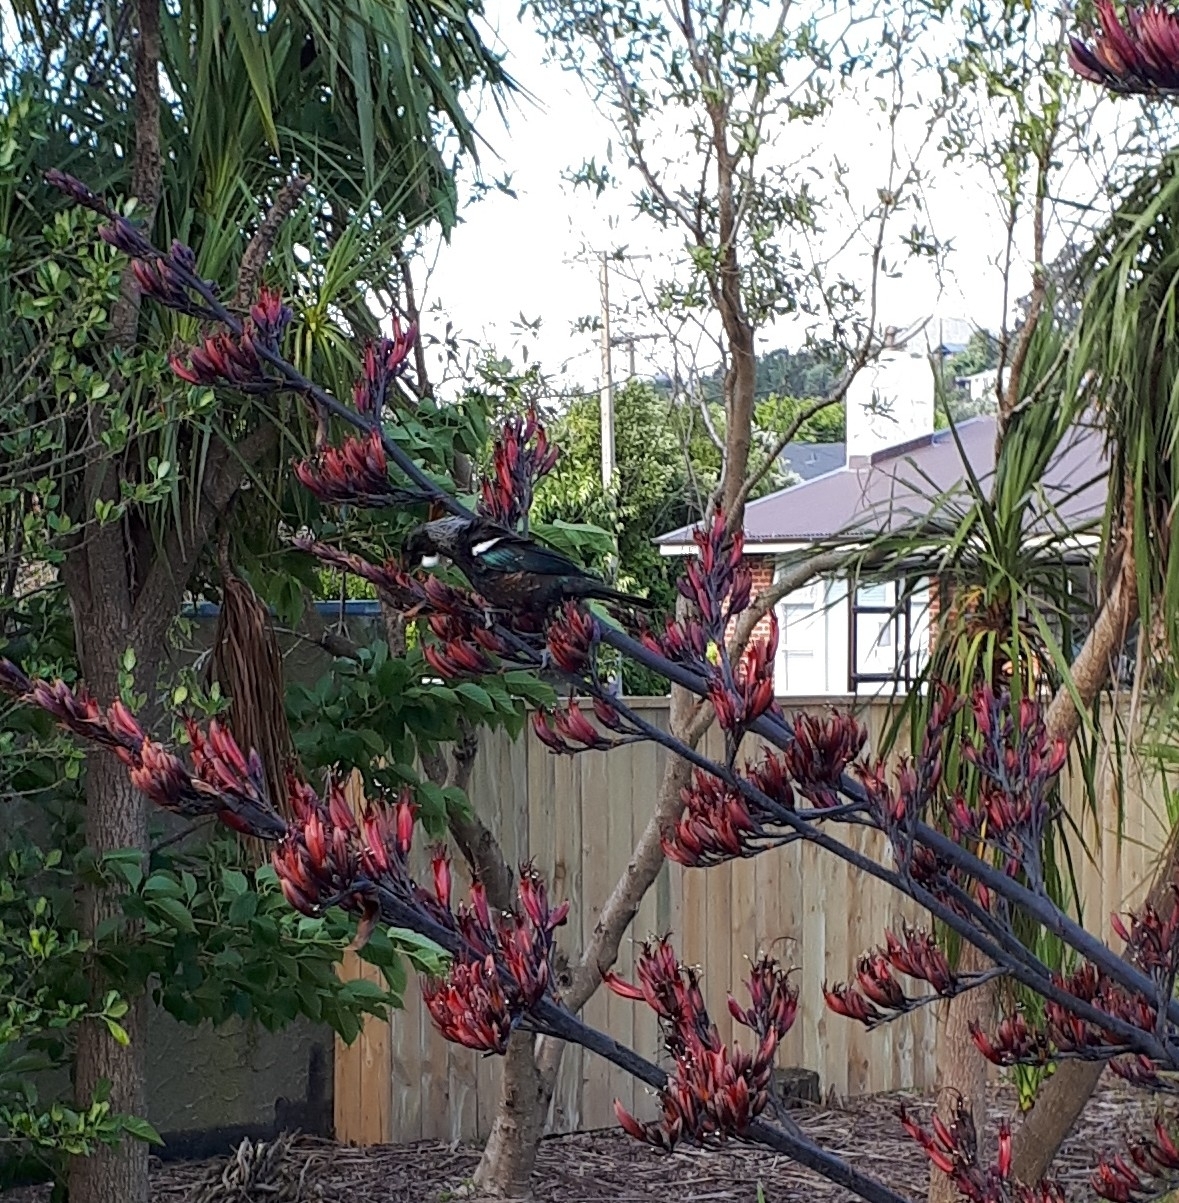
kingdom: Animalia
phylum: Chordata
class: Aves
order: Passeriformes
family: Meliphagidae
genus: Prosthemadera
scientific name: Prosthemadera novaeseelandiae
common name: Tui
